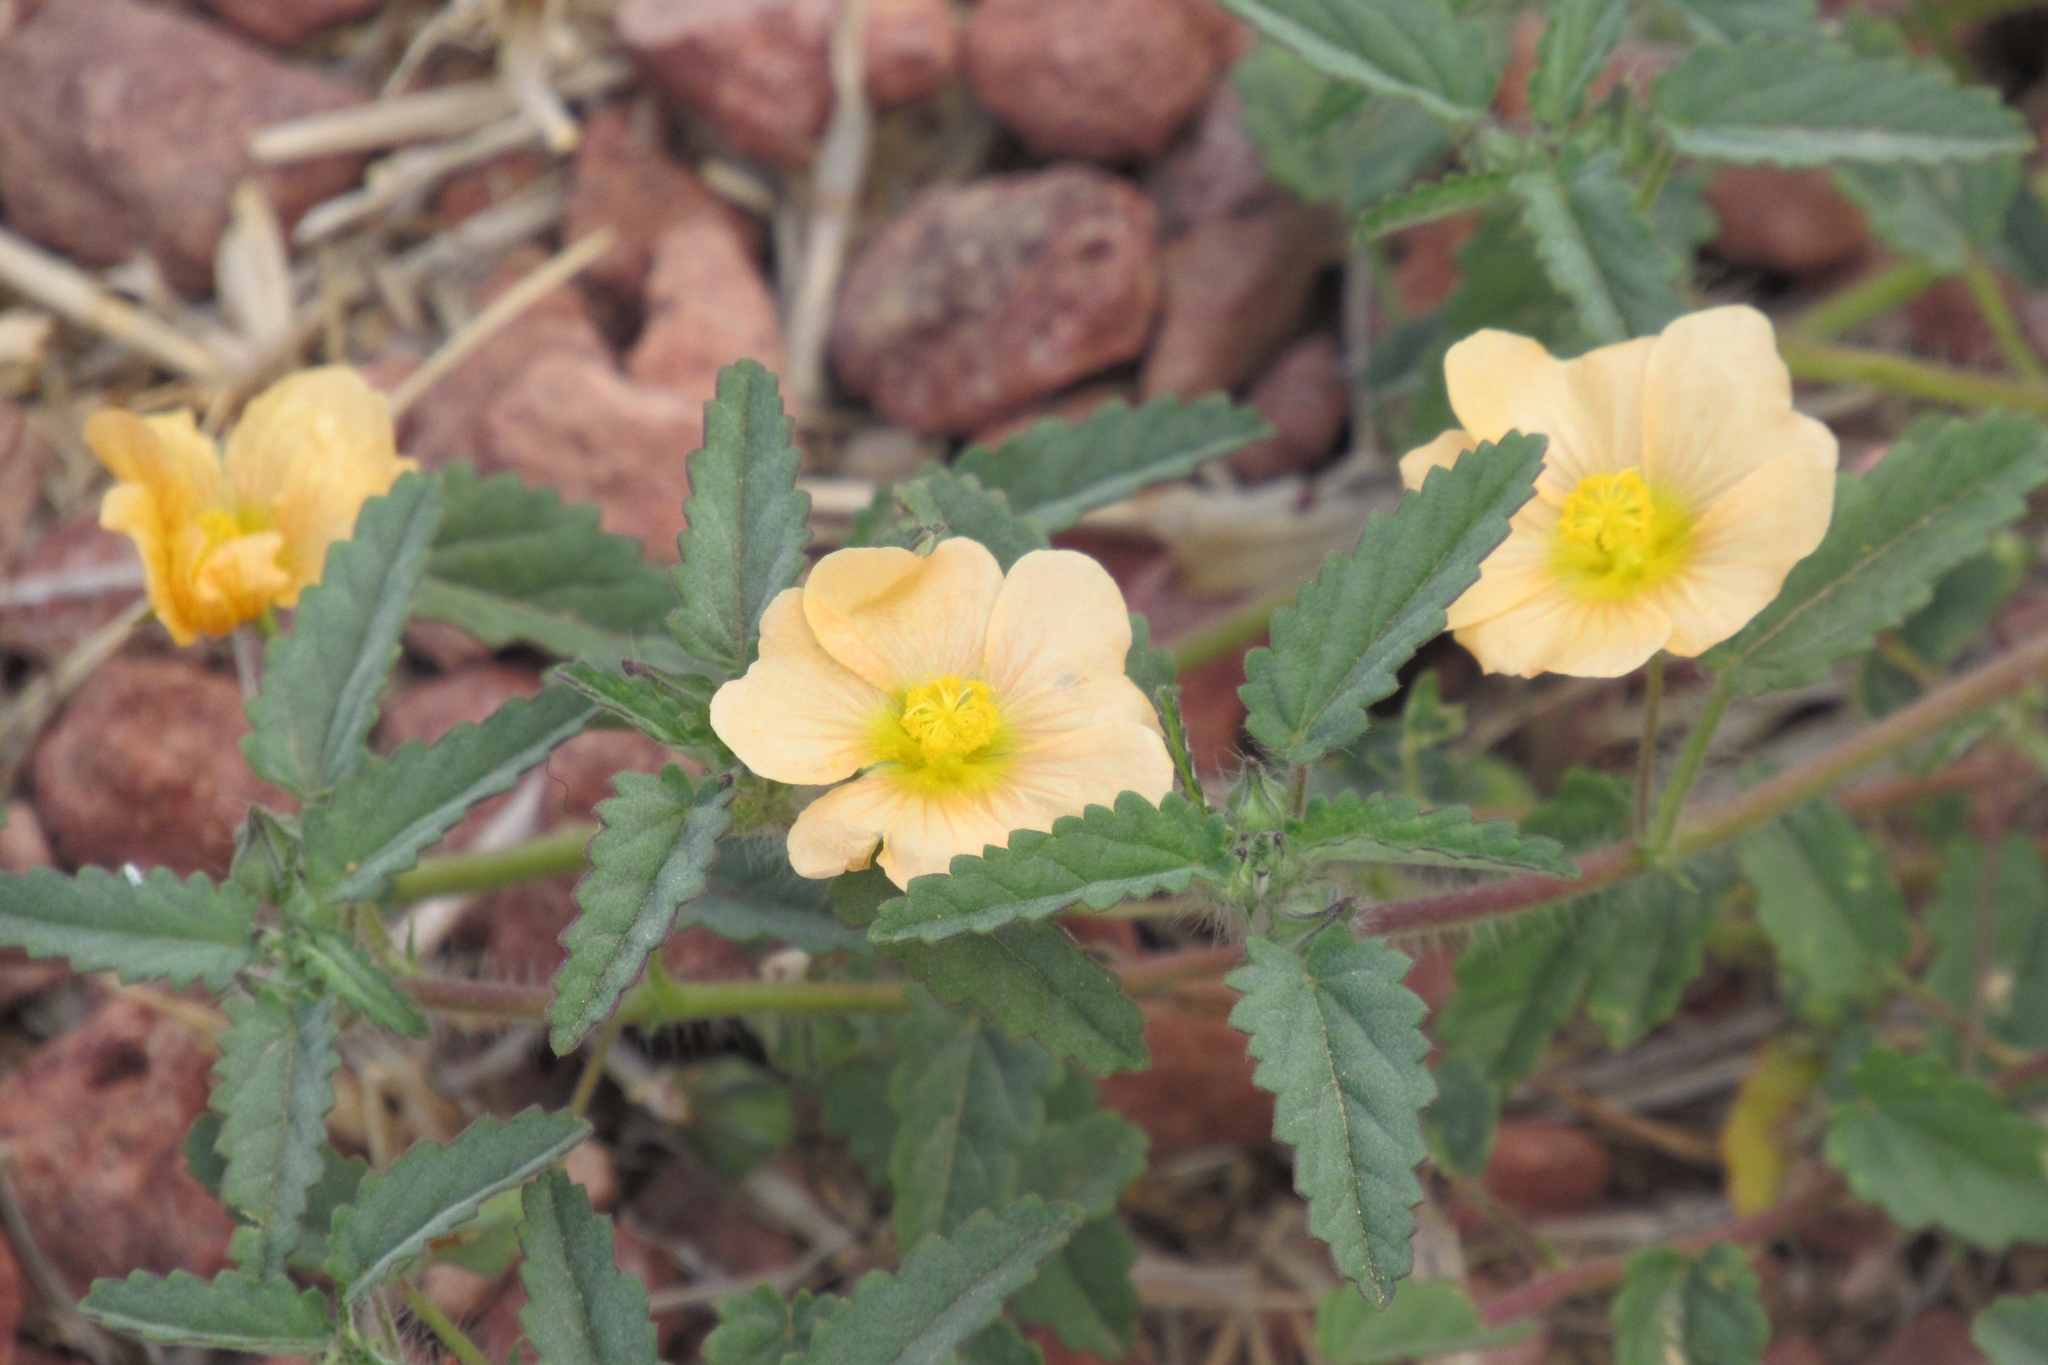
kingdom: Plantae
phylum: Tracheophyta
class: Magnoliopsida
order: Malvales
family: Malvaceae
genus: Sida
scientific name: Sida abutilifolia
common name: Spreading fanpetals
